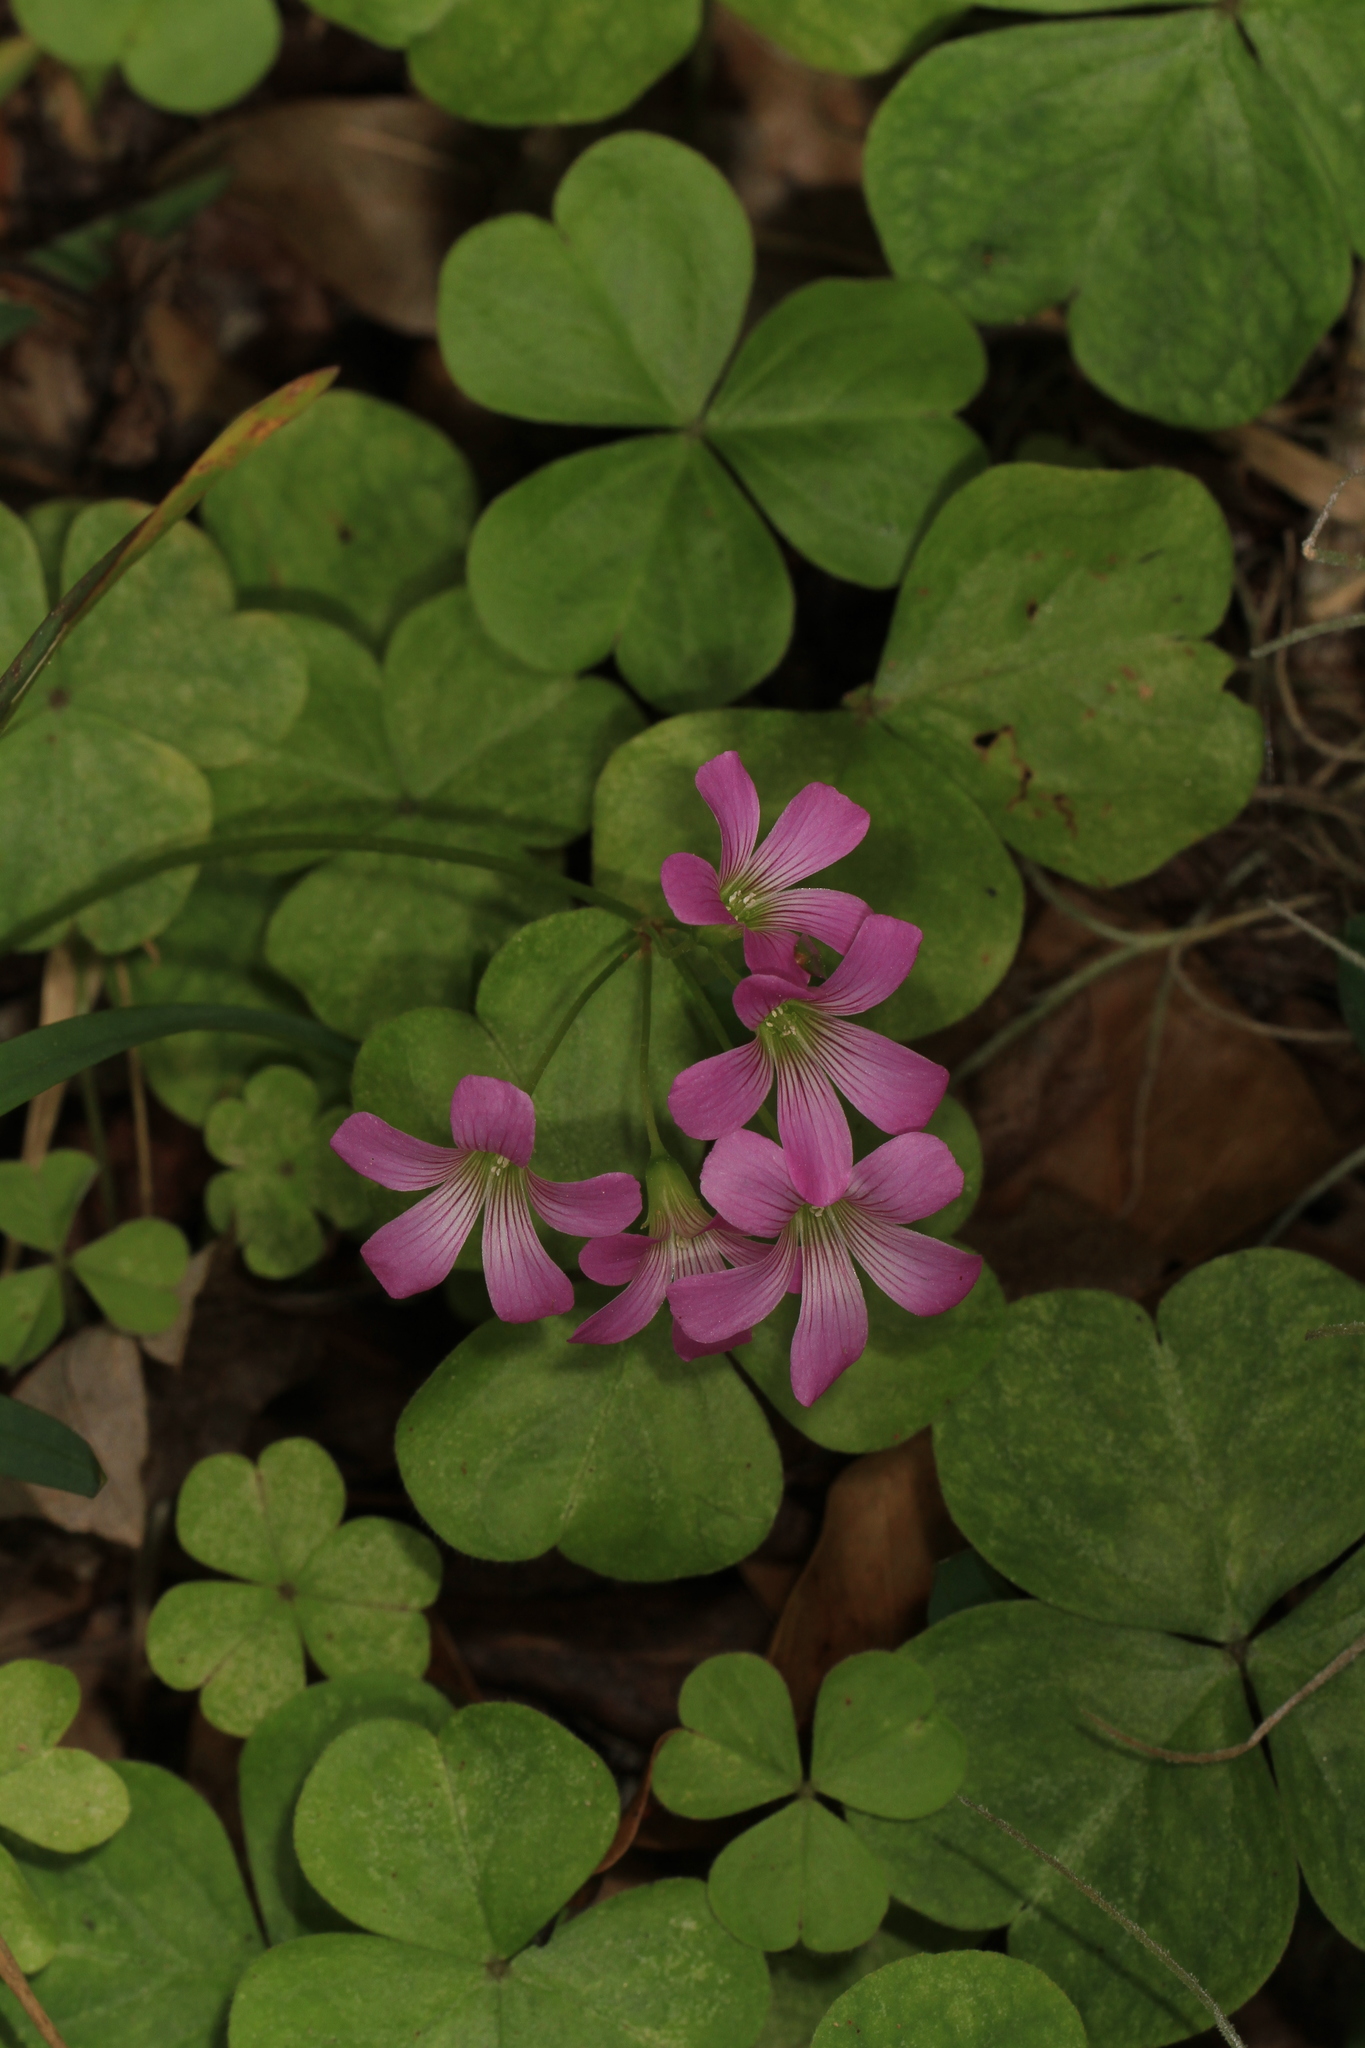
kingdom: Plantae
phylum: Tracheophyta
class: Magnoliopsida
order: Oxalidales
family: Oxalidaceae
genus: Oxalis
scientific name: Oxalis debilis
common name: Large-flowered pink-sorrel
